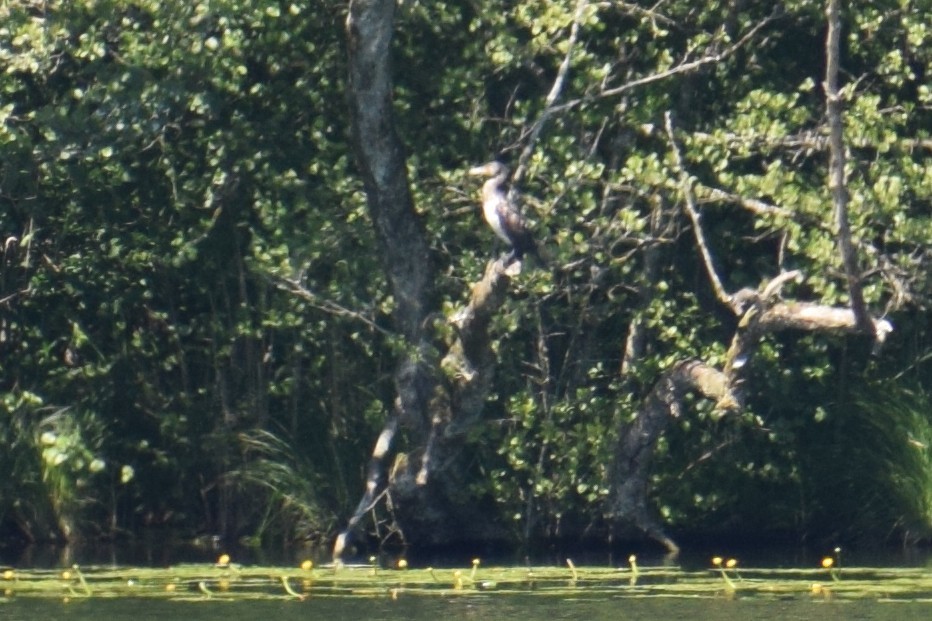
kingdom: Animalia
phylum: Chordata
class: Aves
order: Suliformes
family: Phalacrocoracidae
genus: Phalacrocorax
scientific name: Phalacrocorax carbo
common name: Great cormorant
